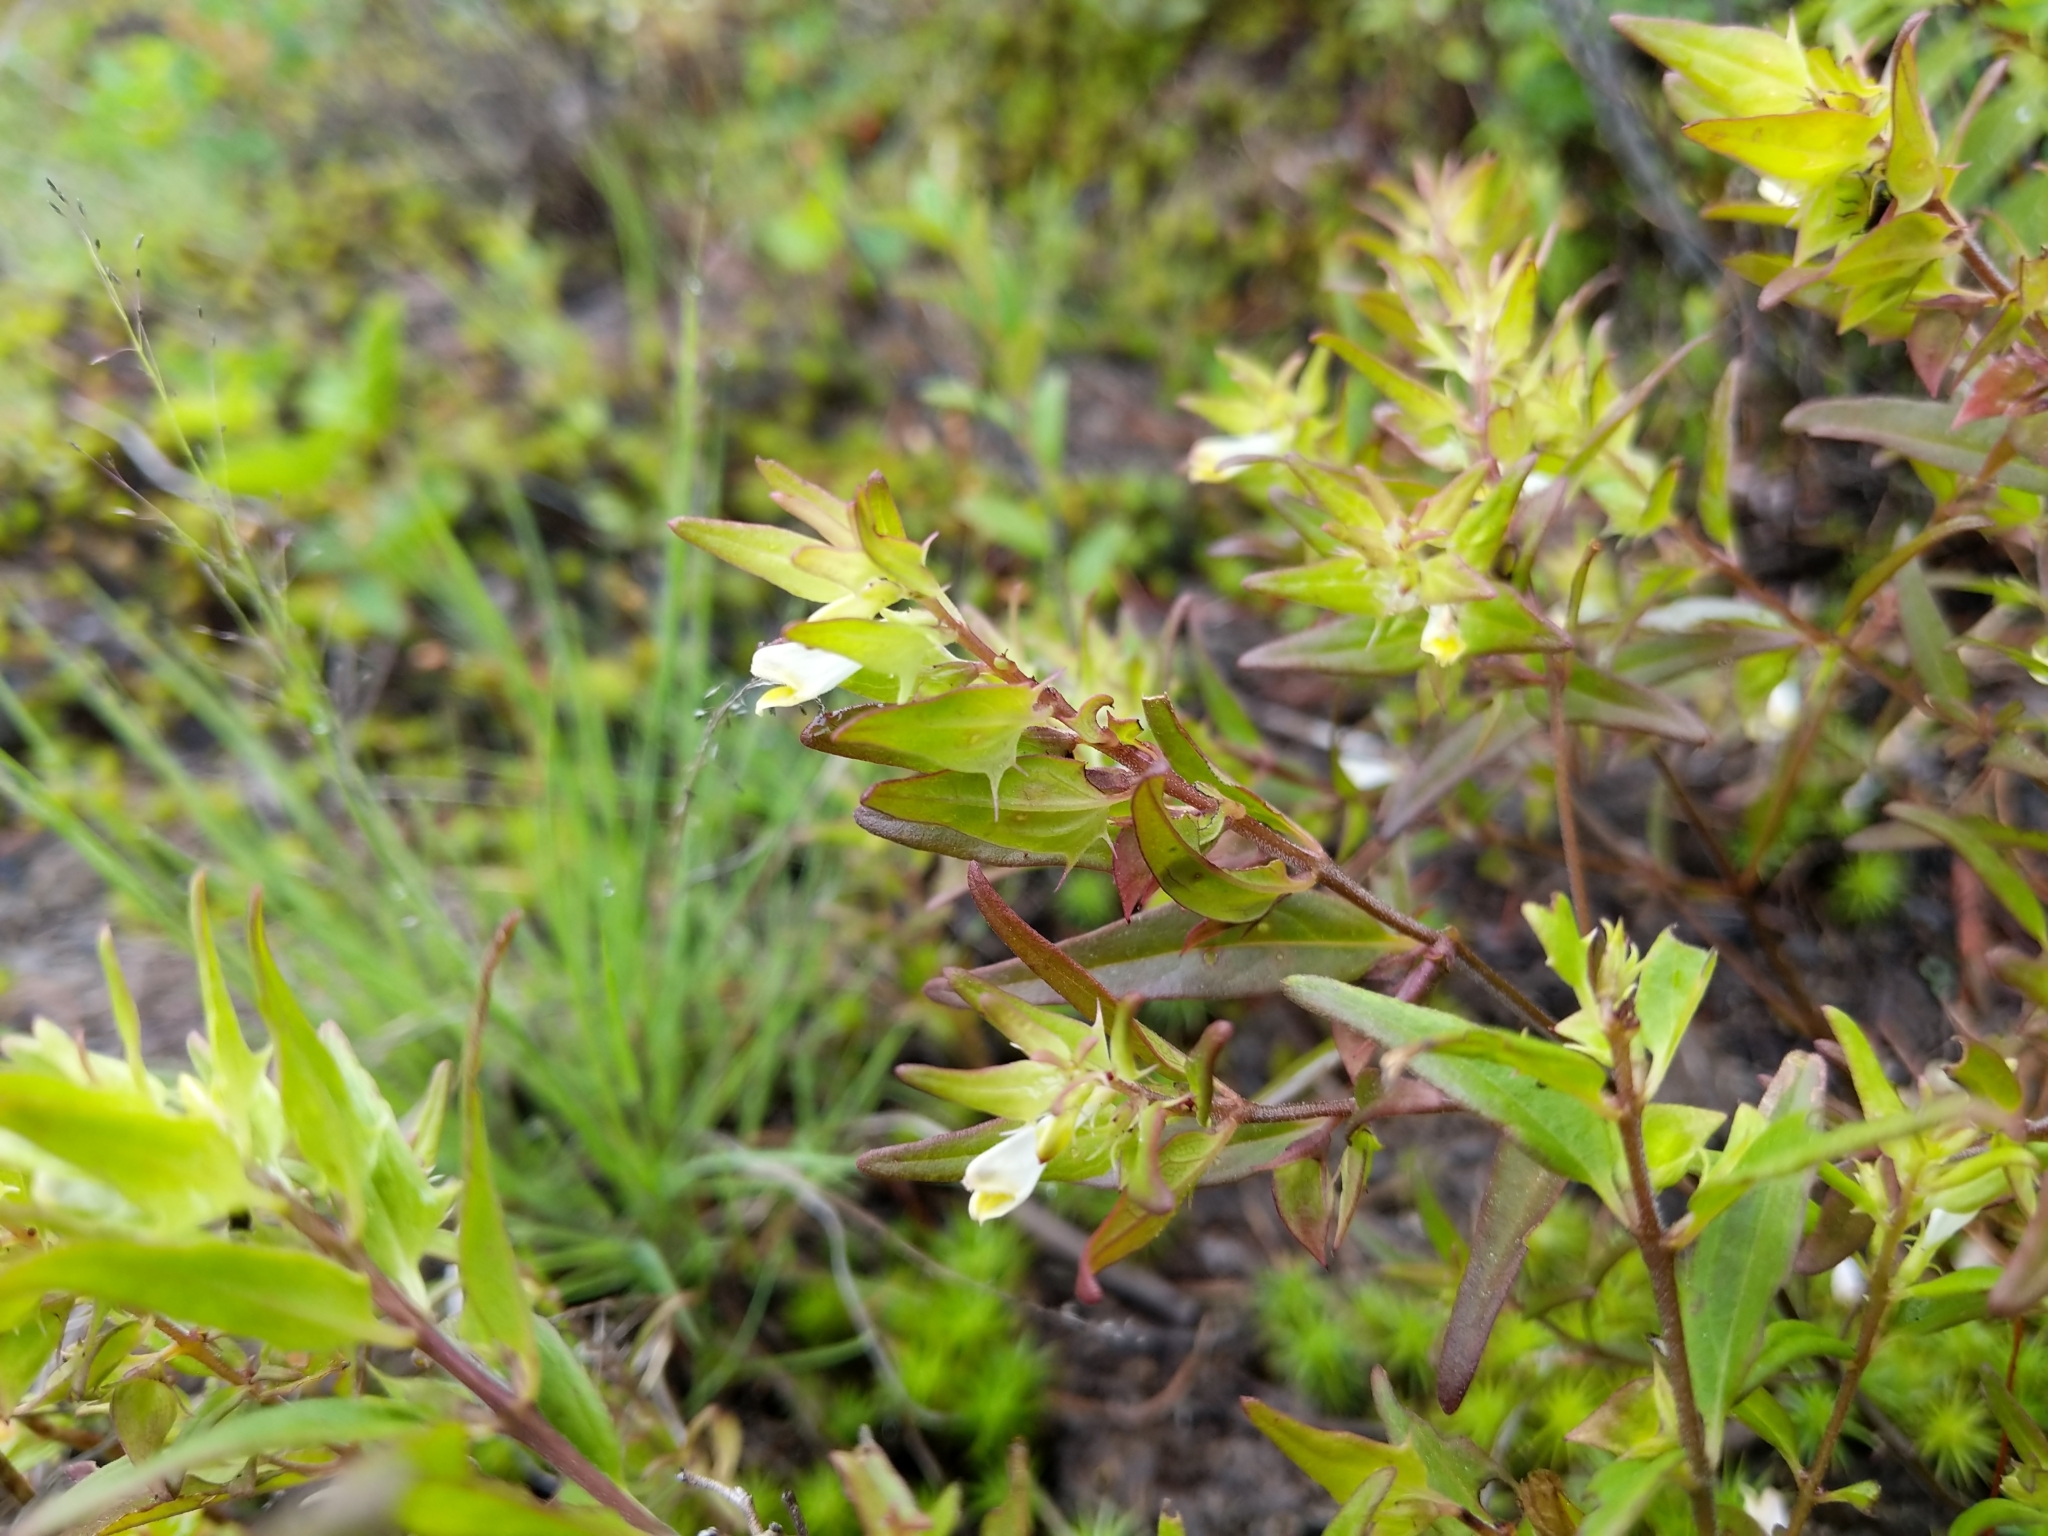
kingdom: Plantae
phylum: Tracheophyta
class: Magnoliopsida
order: Lamiales
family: Orobanchaceae
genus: Melampyrum
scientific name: Melampyrum lineare
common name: American cow-wheat
